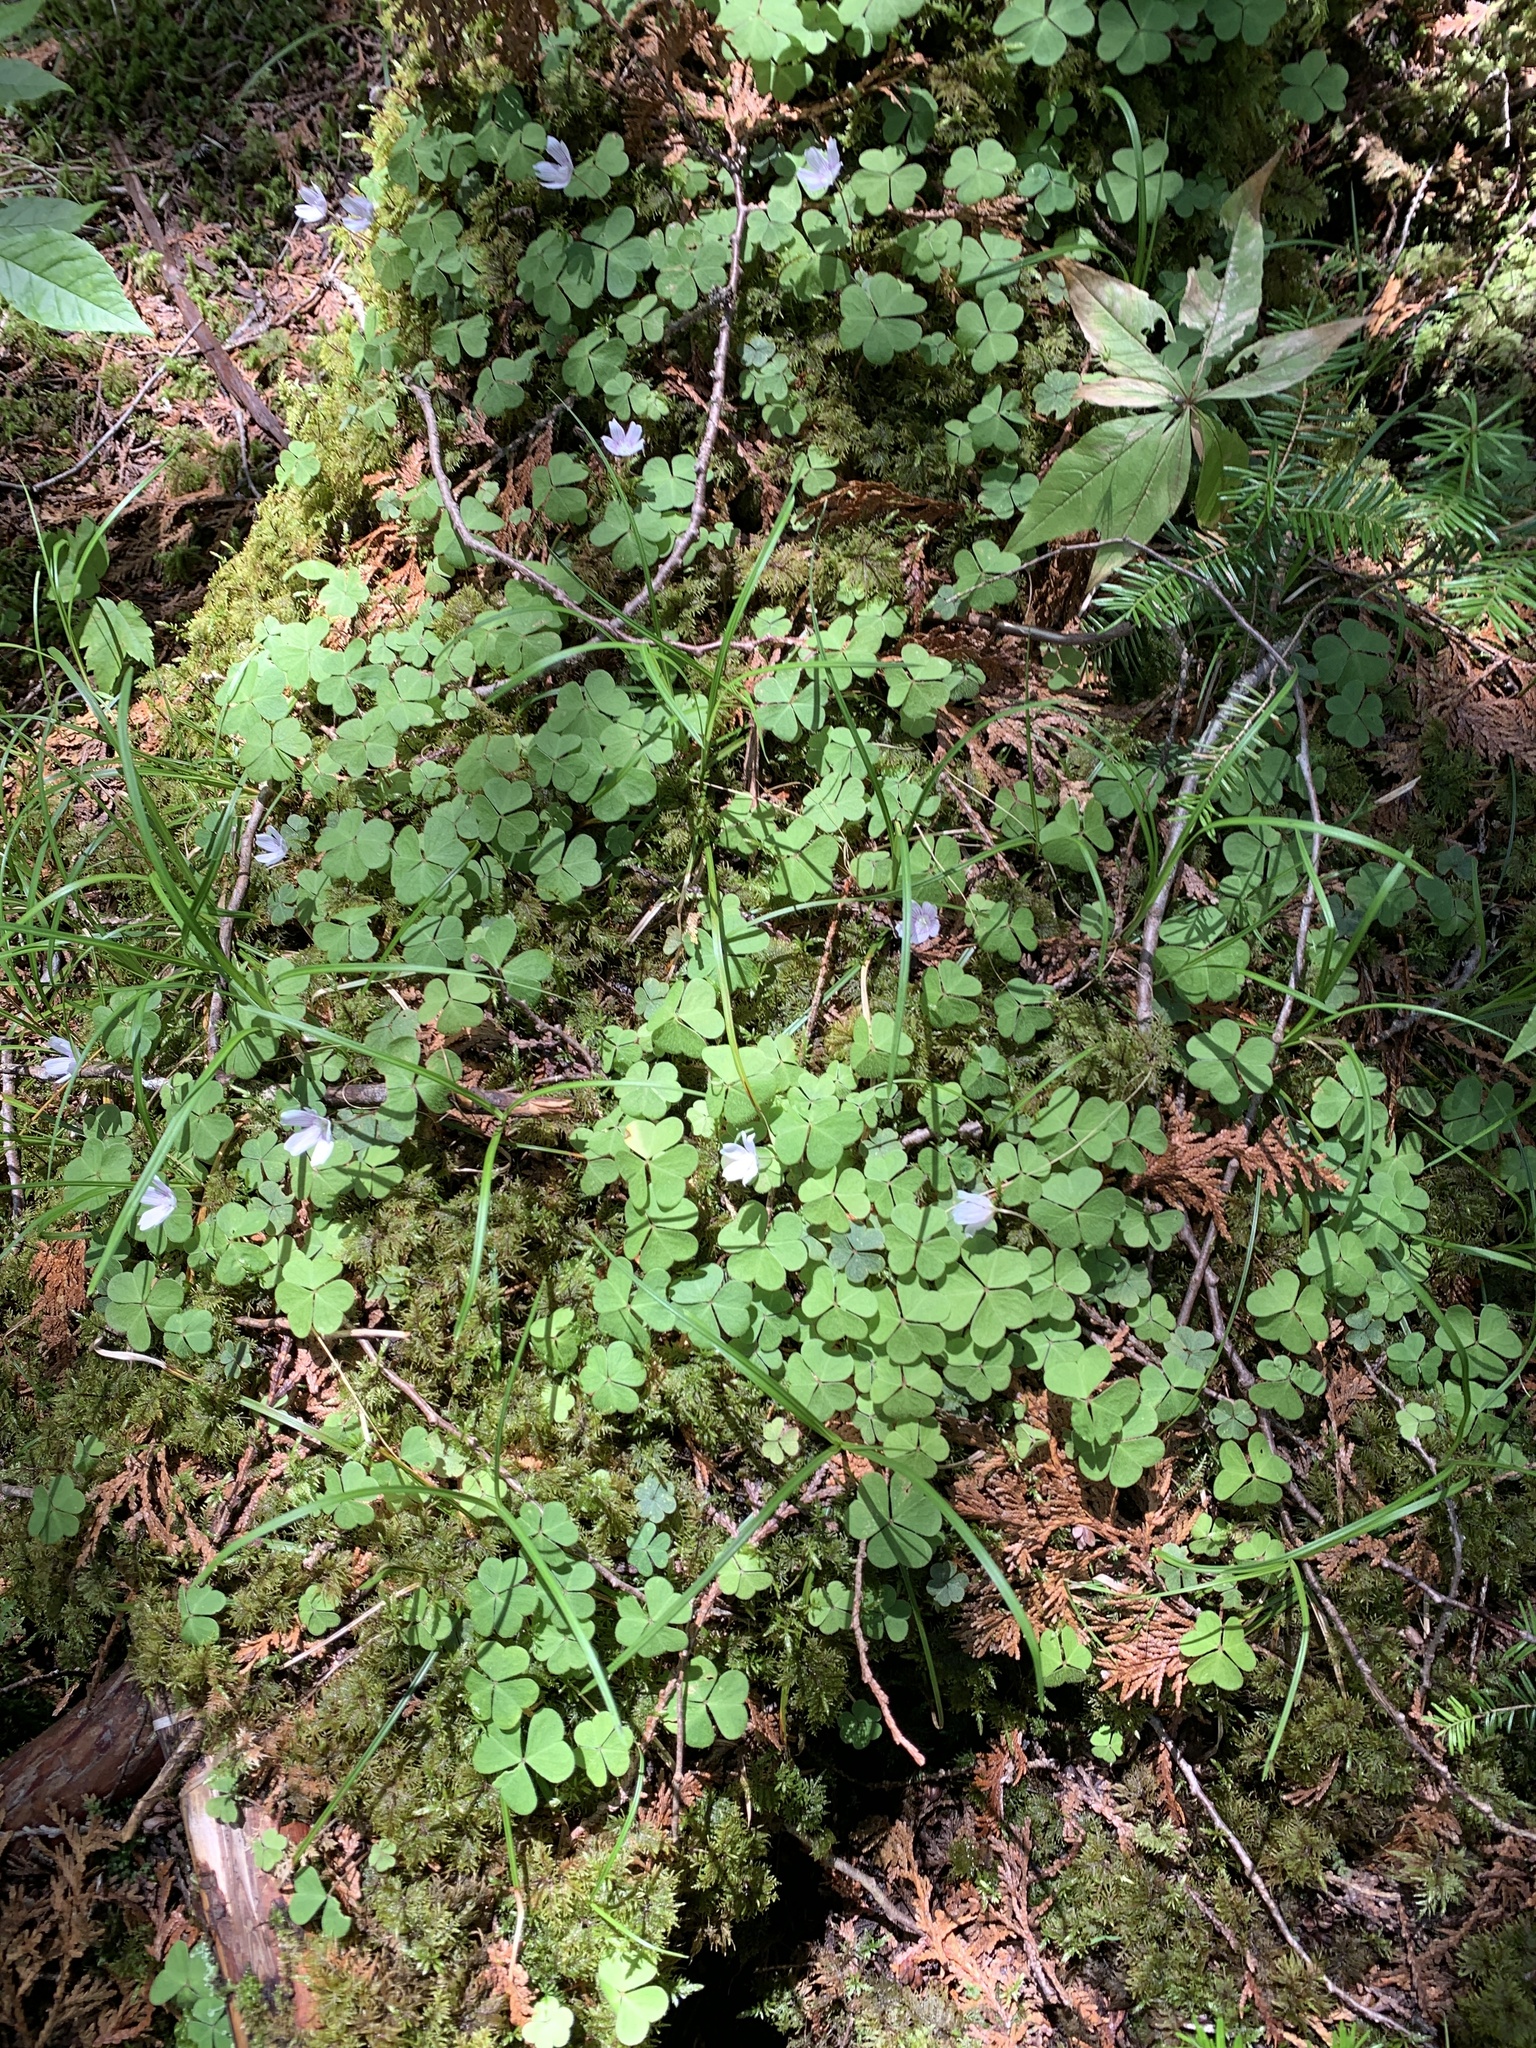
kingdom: Plantae
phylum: Tracheophyta
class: Magnoliopsida
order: Oxalidales
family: Oxalidaceae
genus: Oxalis
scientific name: Oxalis montana
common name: American wood-sorrel
